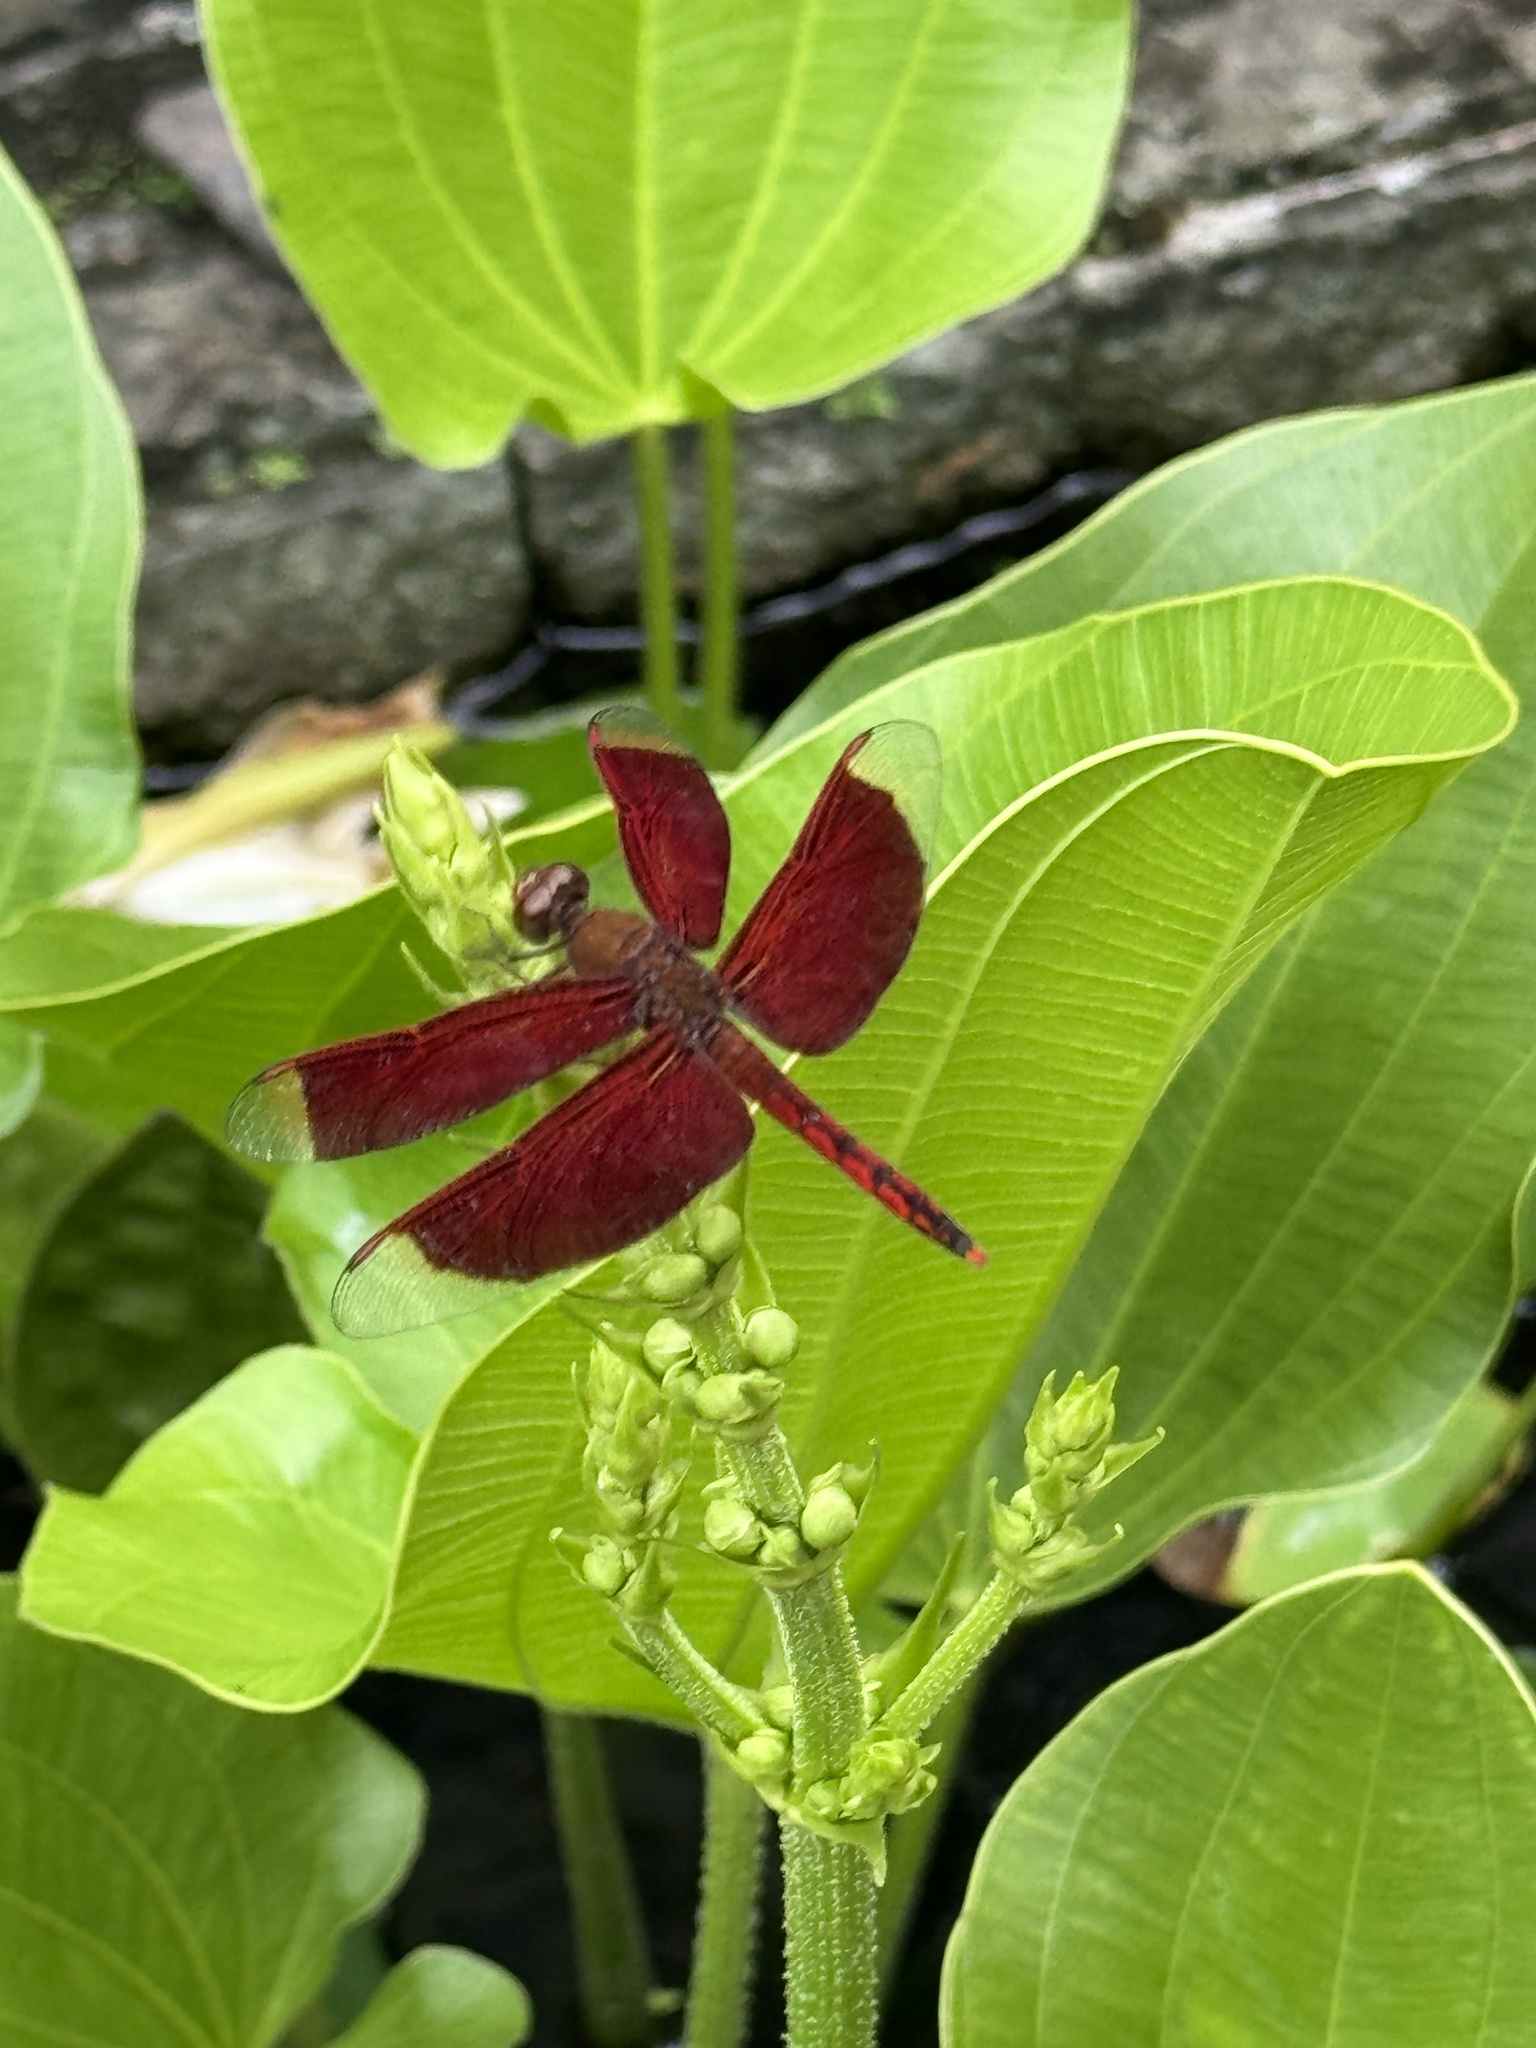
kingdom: Animalia
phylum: Arthropoda
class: Insecta
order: Odonata
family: Libellulidae
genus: Neurothemis
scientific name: Neurothemis ramburii
